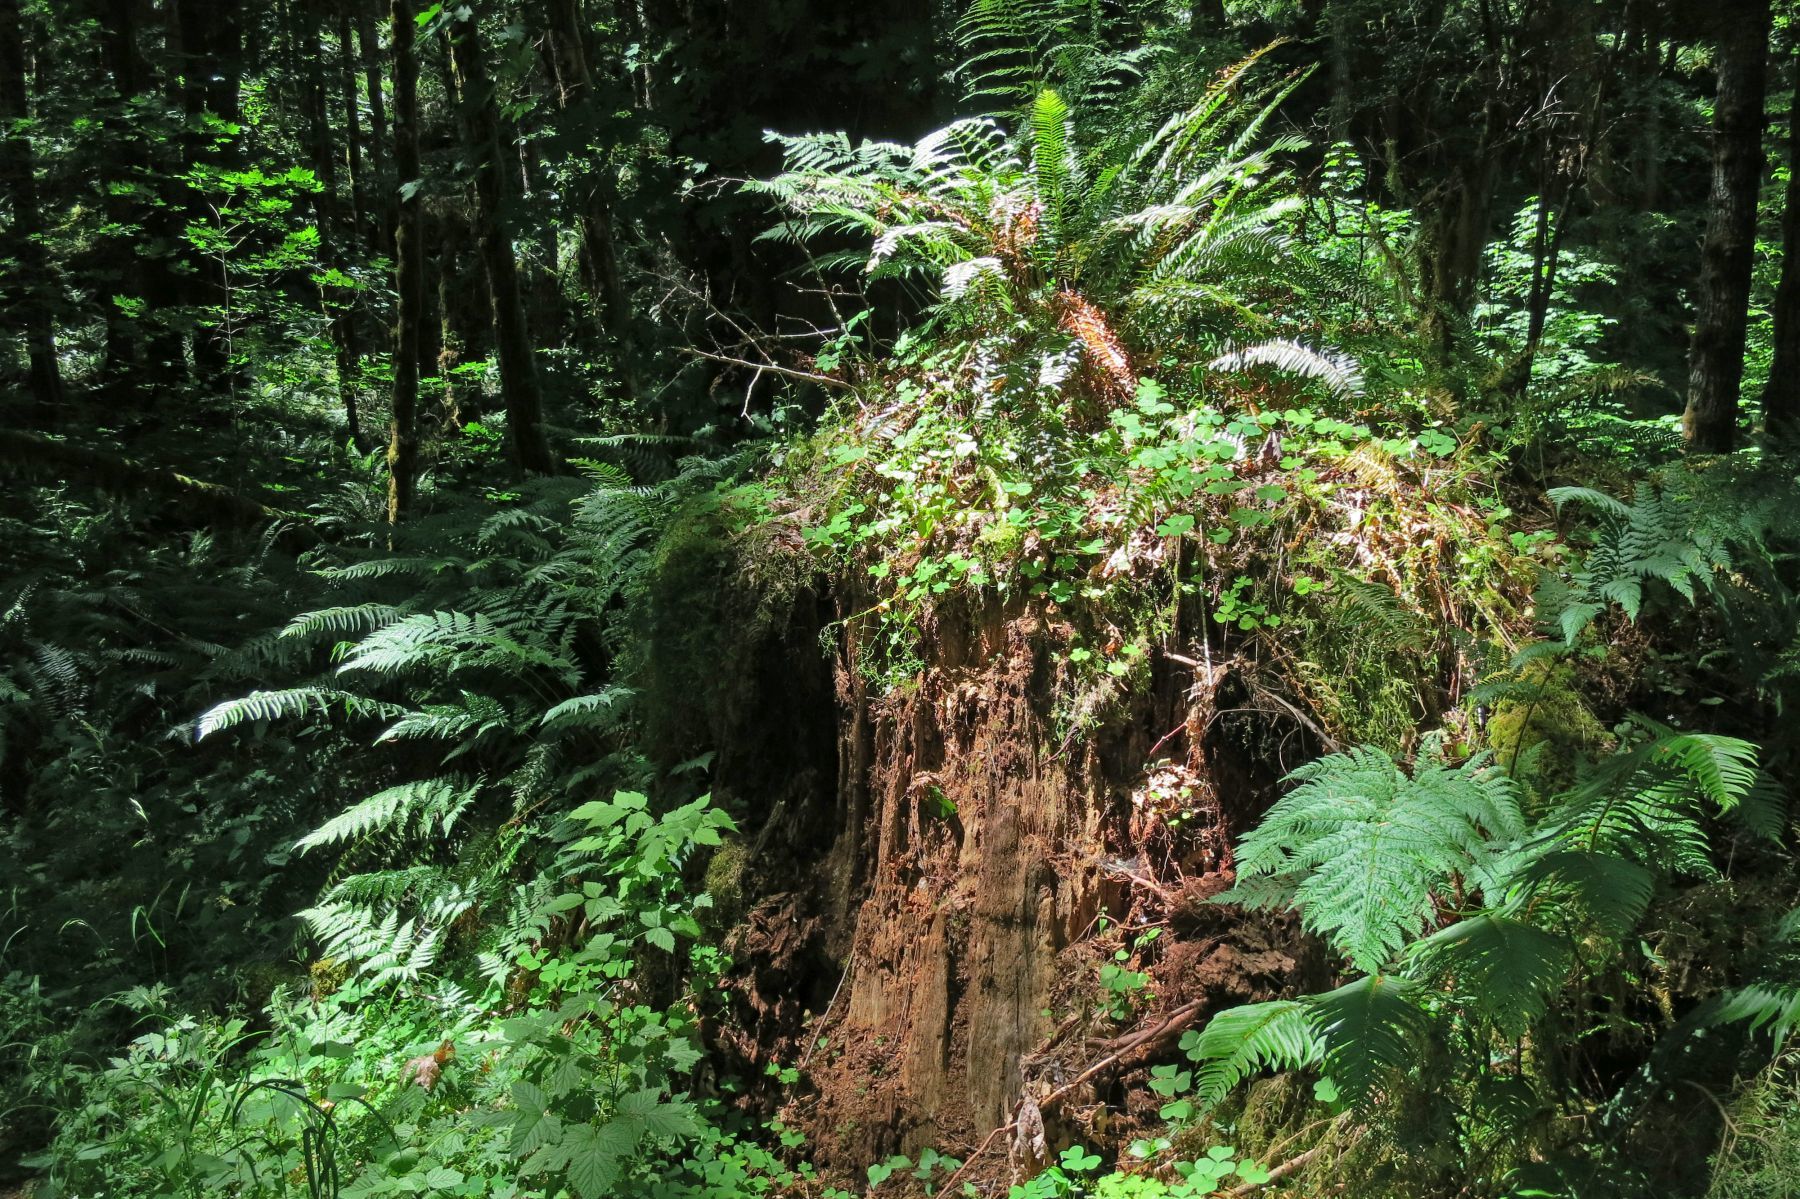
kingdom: Plantae
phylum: Tracheophyta
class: Polypodiopsida
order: Polypodiales
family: Dryopteridaceae
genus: Dryopteris
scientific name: Dryopteris expansa
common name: Northern buckler fern
